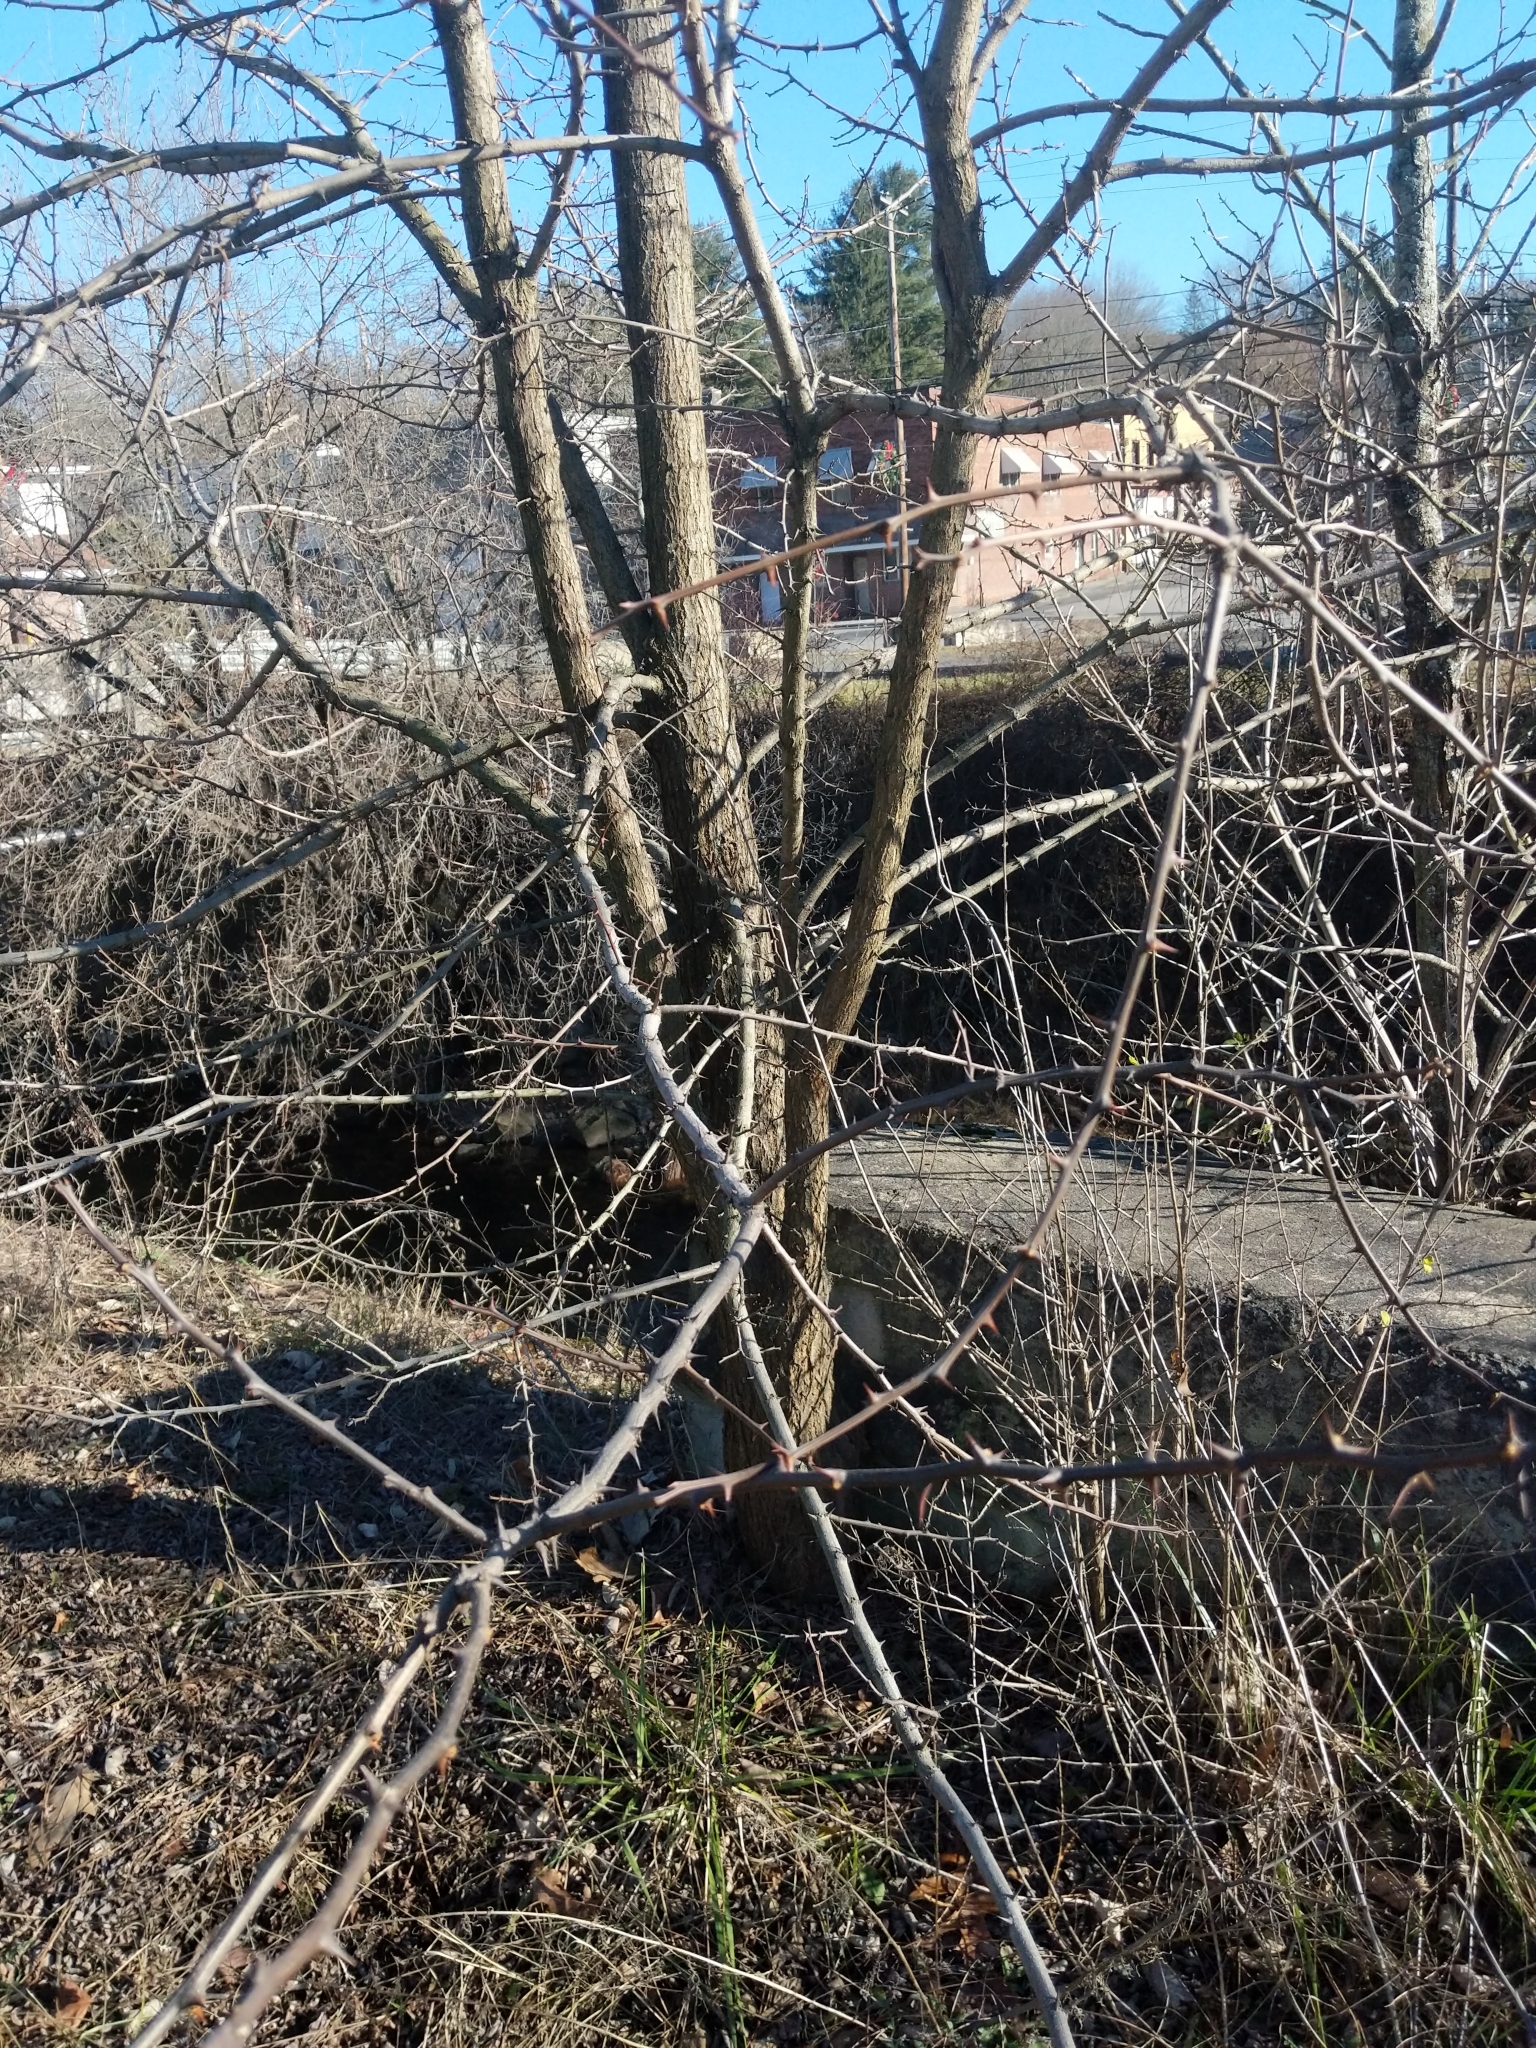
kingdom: Plantae
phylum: Tracheophyta
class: Magnoliopsida
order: Fabales
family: Fabaceae
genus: Robinia
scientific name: Robinia pseudoacacia
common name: Black locust
